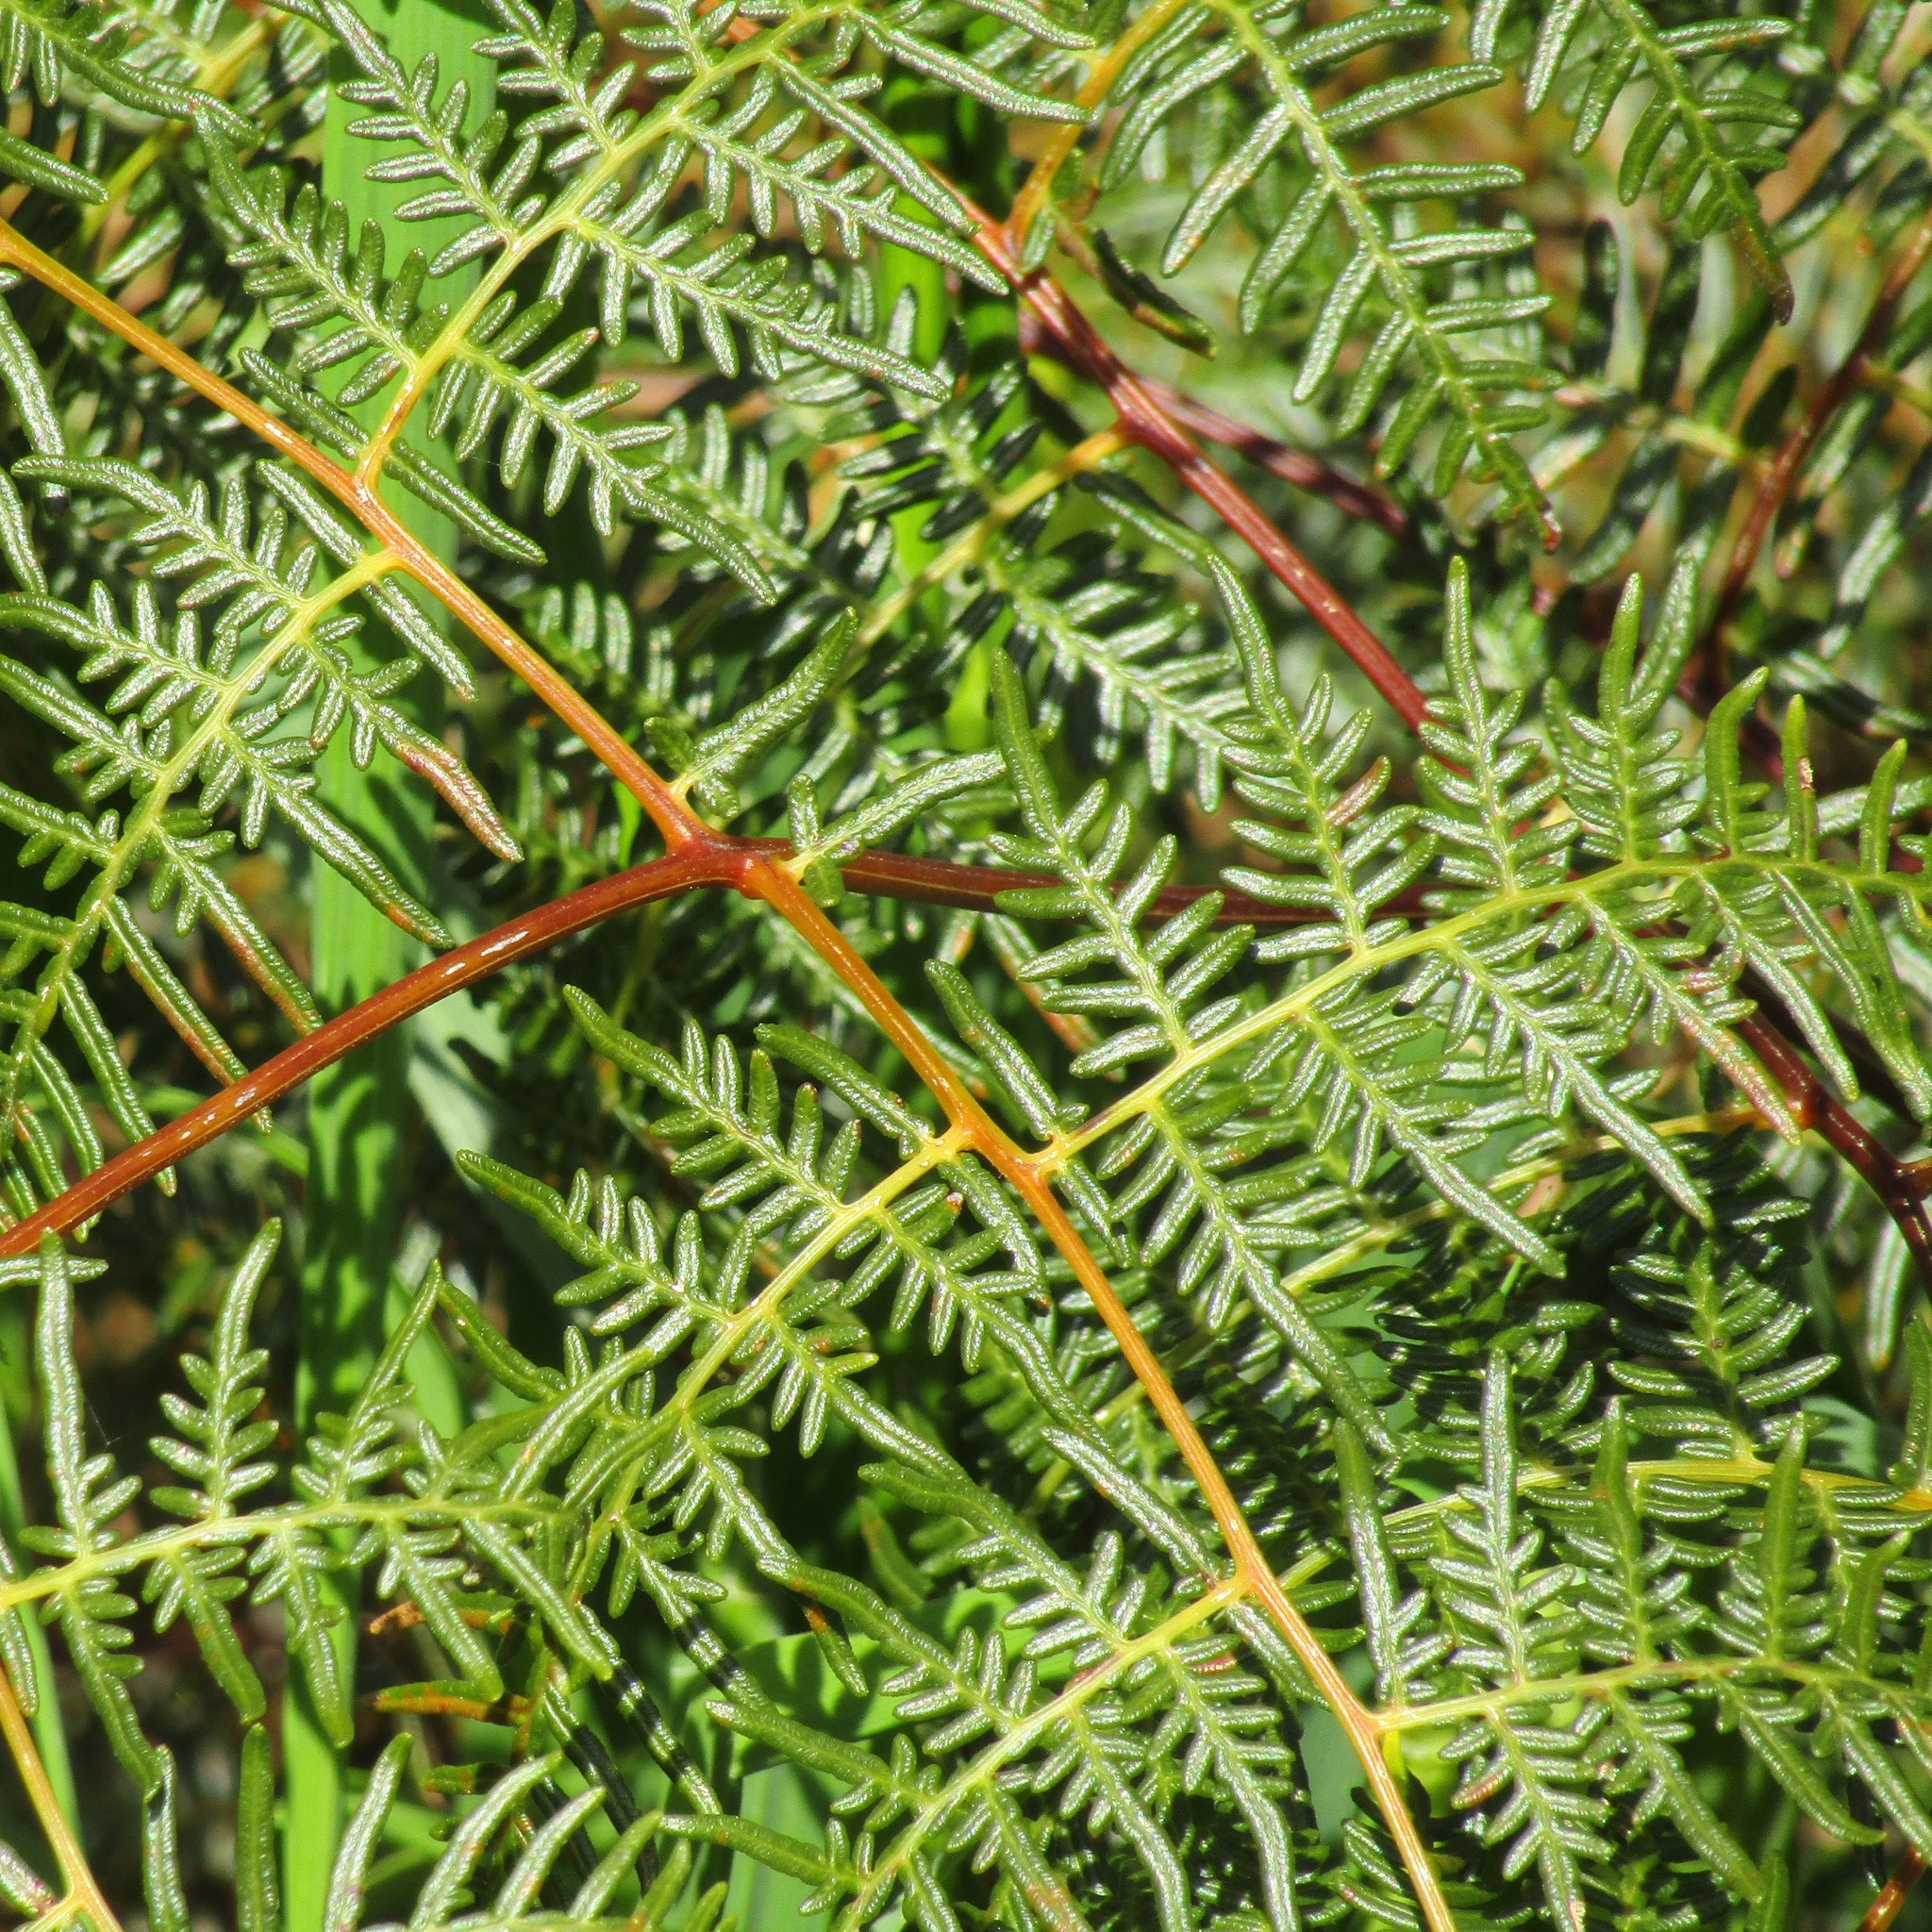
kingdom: Plantae
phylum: Tracheophyta
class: Polypodiopsida
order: Polypodiales
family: Dennstaedtiaceae
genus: Pteridium
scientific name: Pteridium esculentum
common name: Bracken fern
